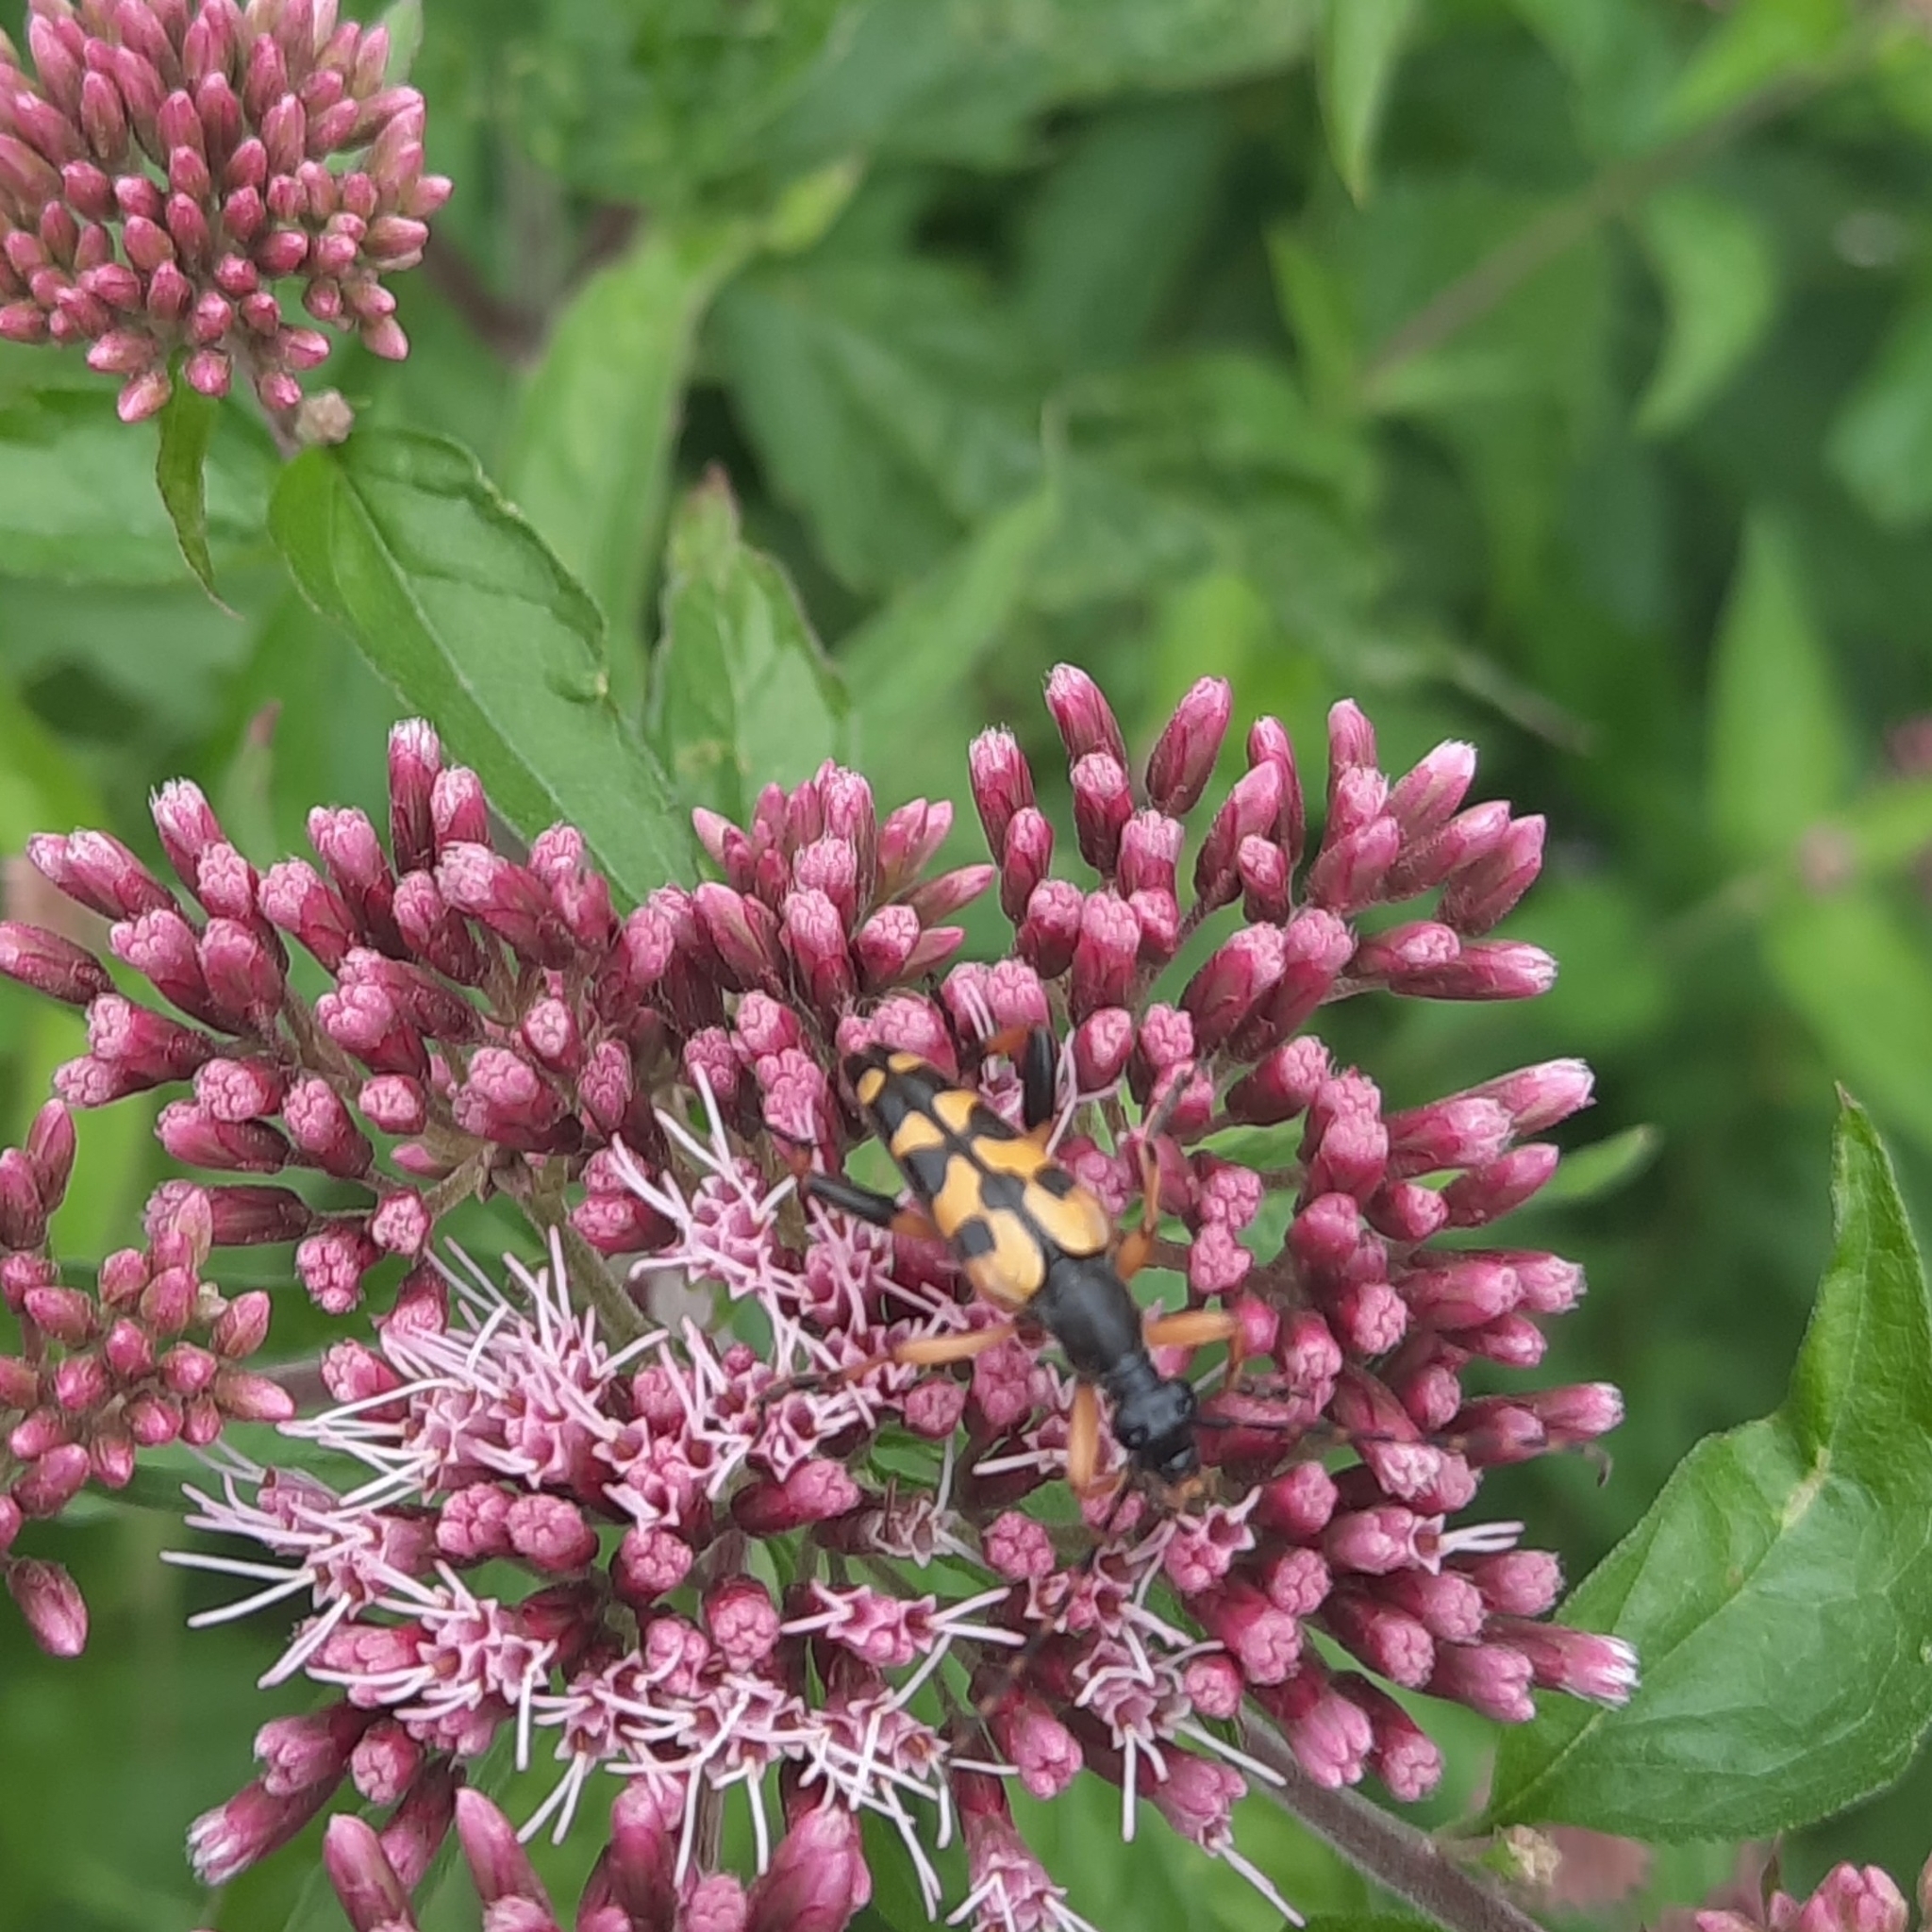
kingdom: Animalia
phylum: Arthropoda
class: Insecta
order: Coleoptera
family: Cerambycidae
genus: Rutpela
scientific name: Rutpela maculata
